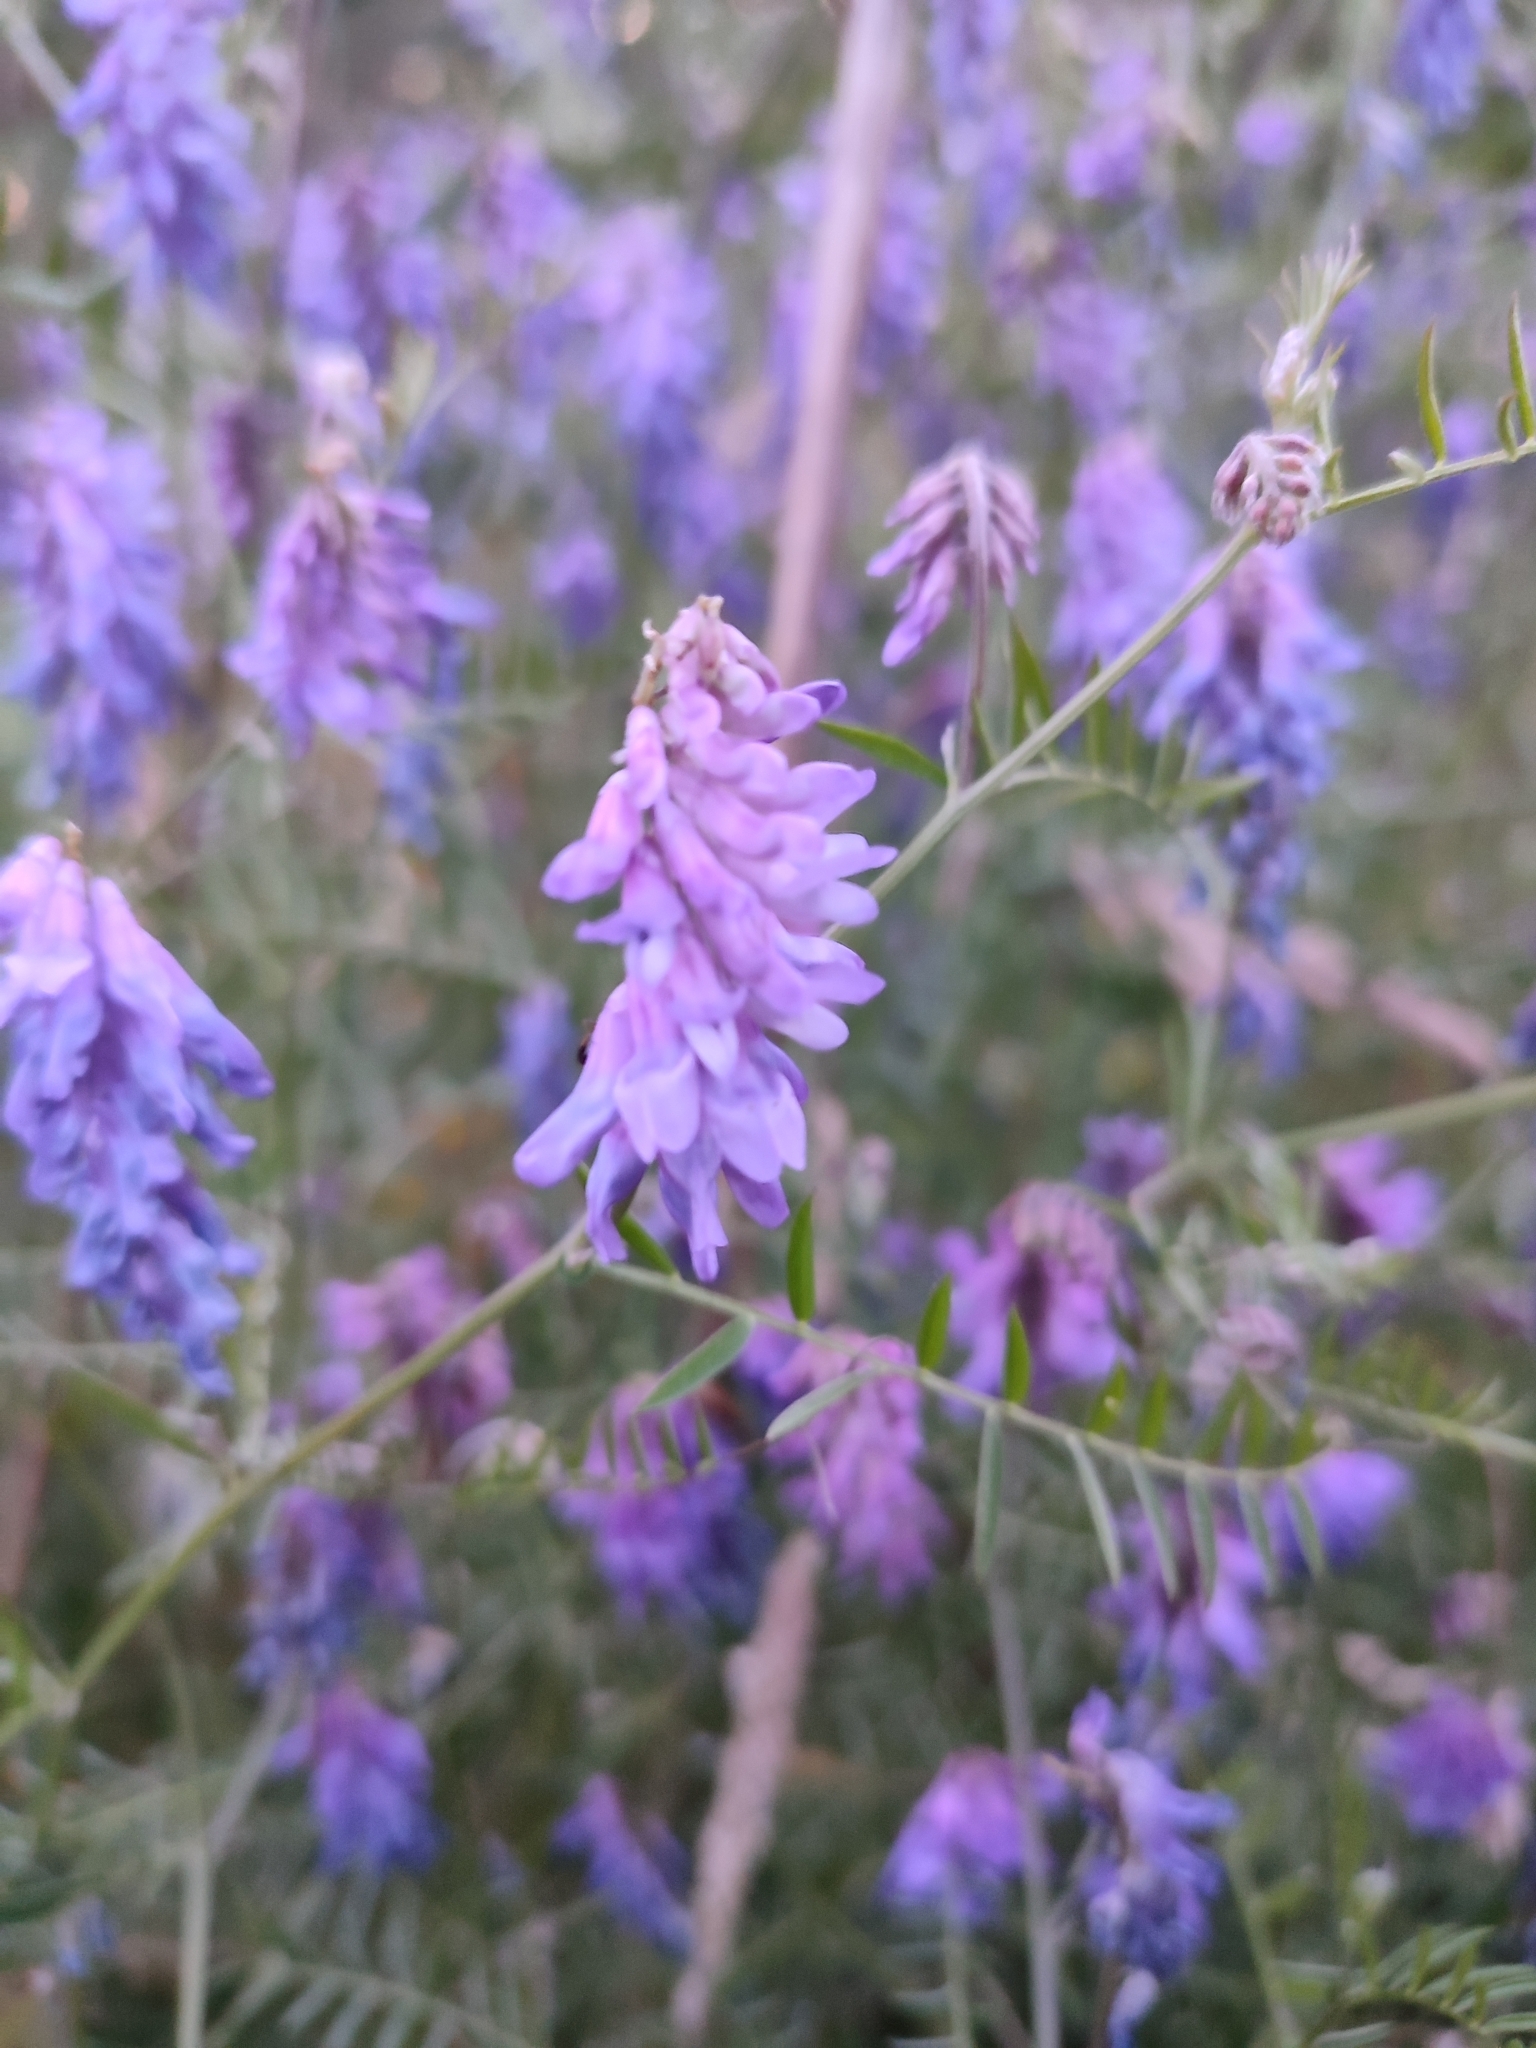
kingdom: Plantae
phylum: Tracheophyta
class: Magnoliopsida
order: Fabales
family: Fabaceae
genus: Vicia
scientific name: Vicia cracca
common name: Bird vetch
